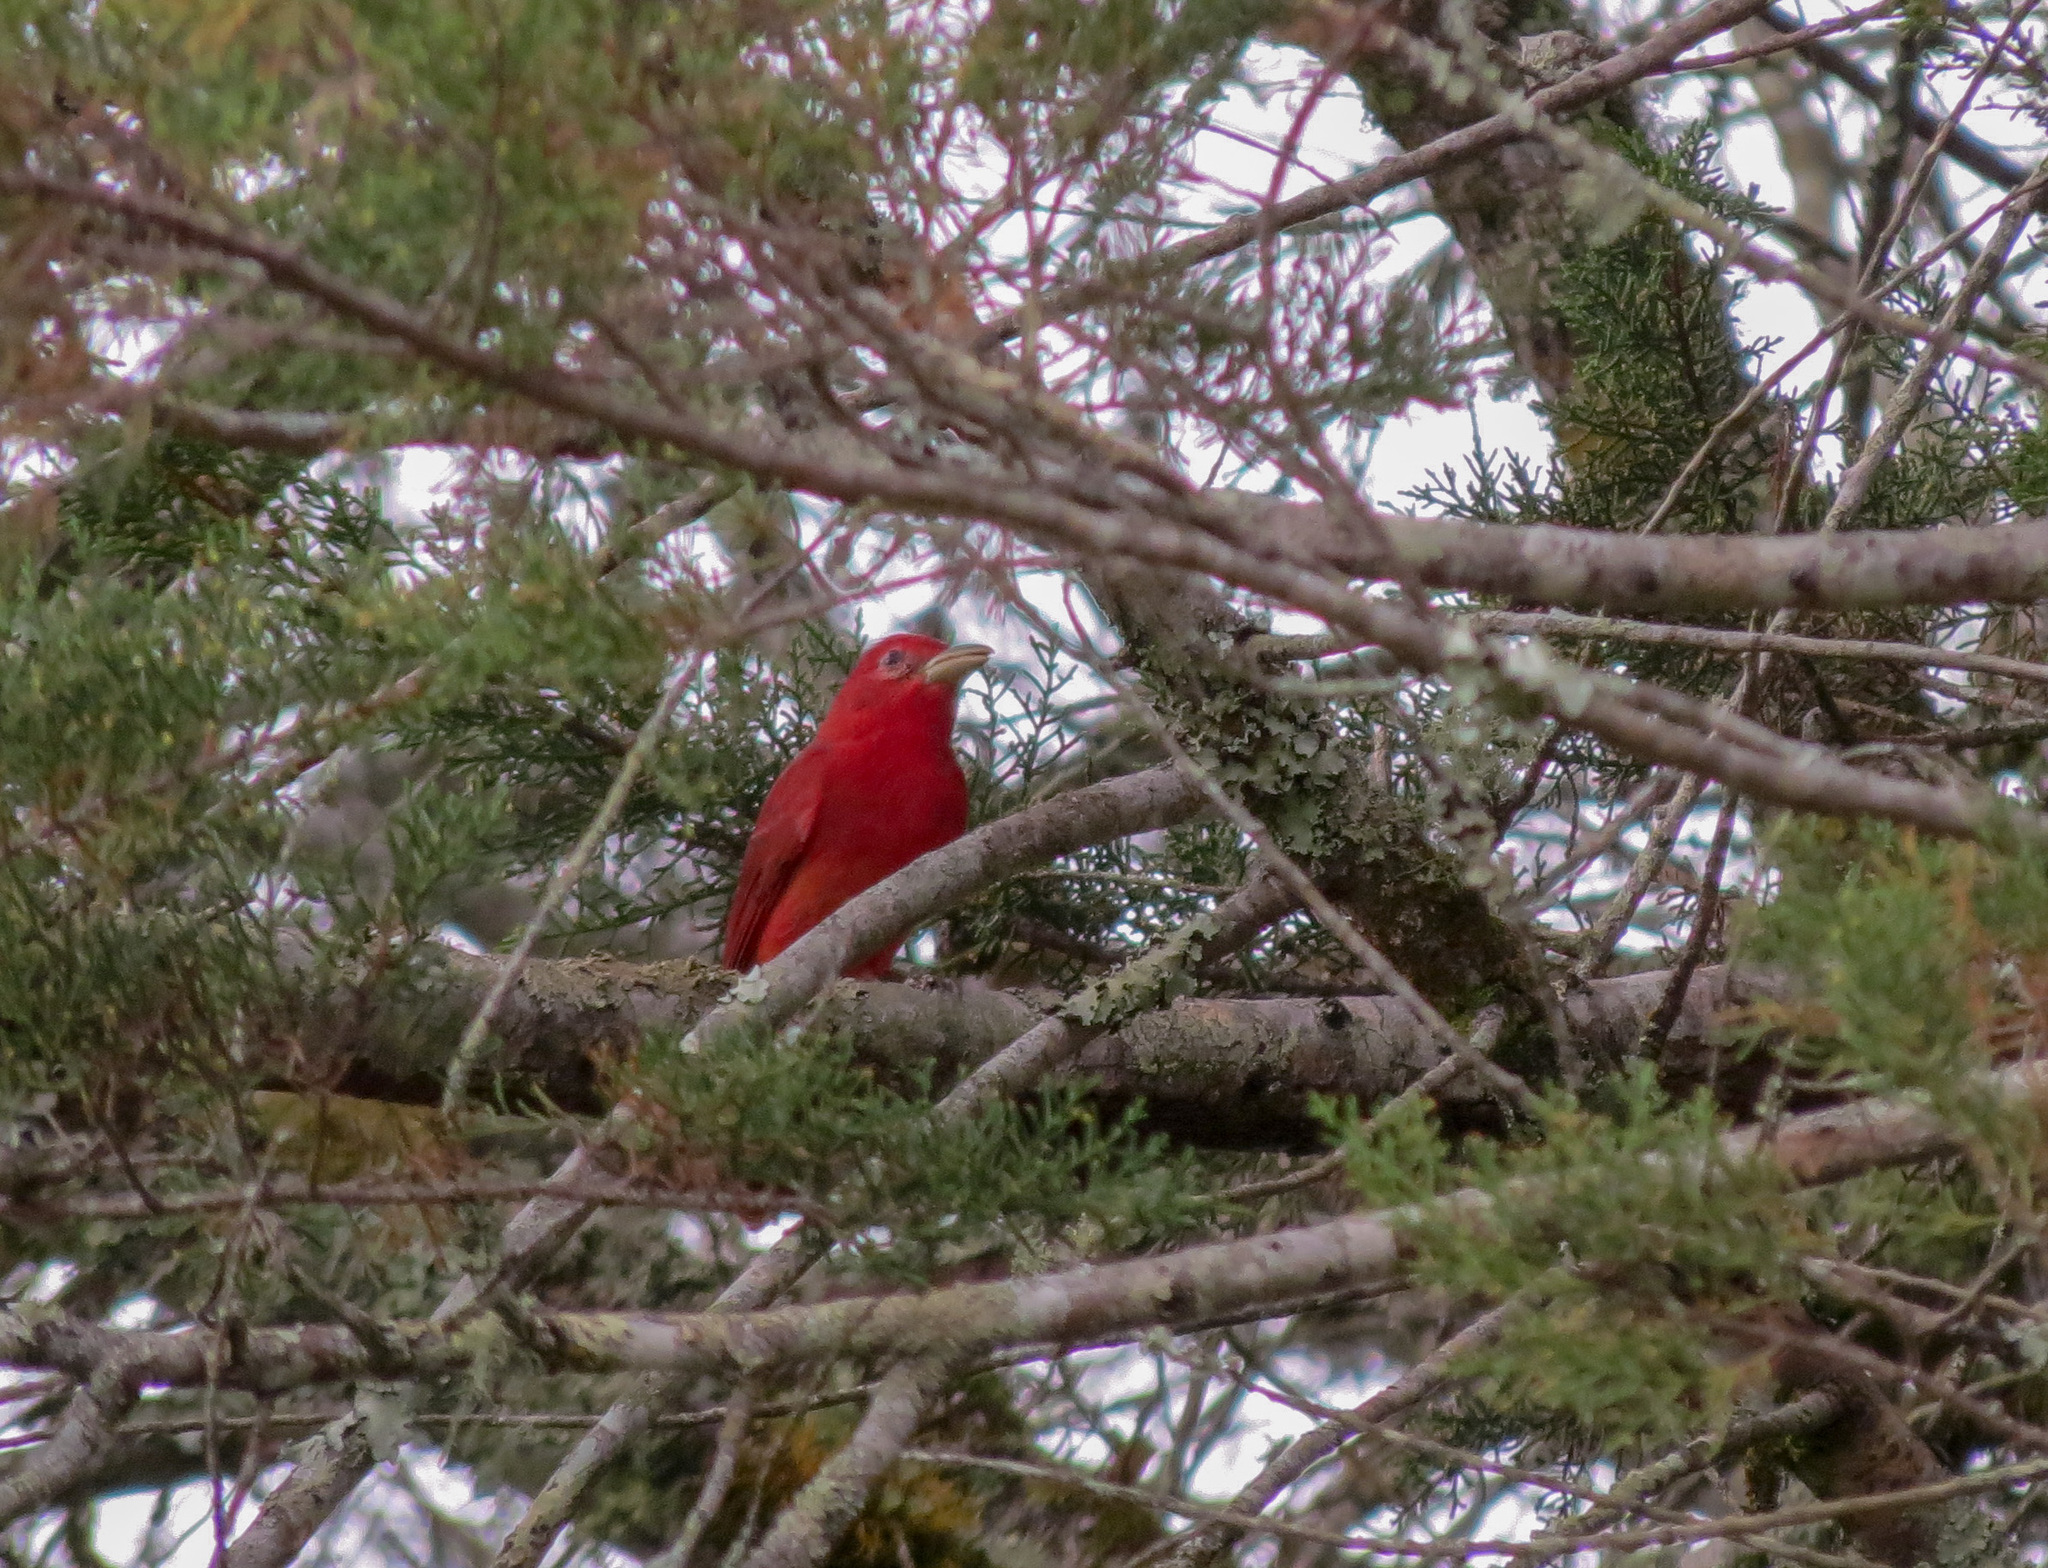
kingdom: Animalia
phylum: Chordata
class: Aves
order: Passeriformes
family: Cardinalidae
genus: Piranga
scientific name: Piranga rubra
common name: Summer tanager
